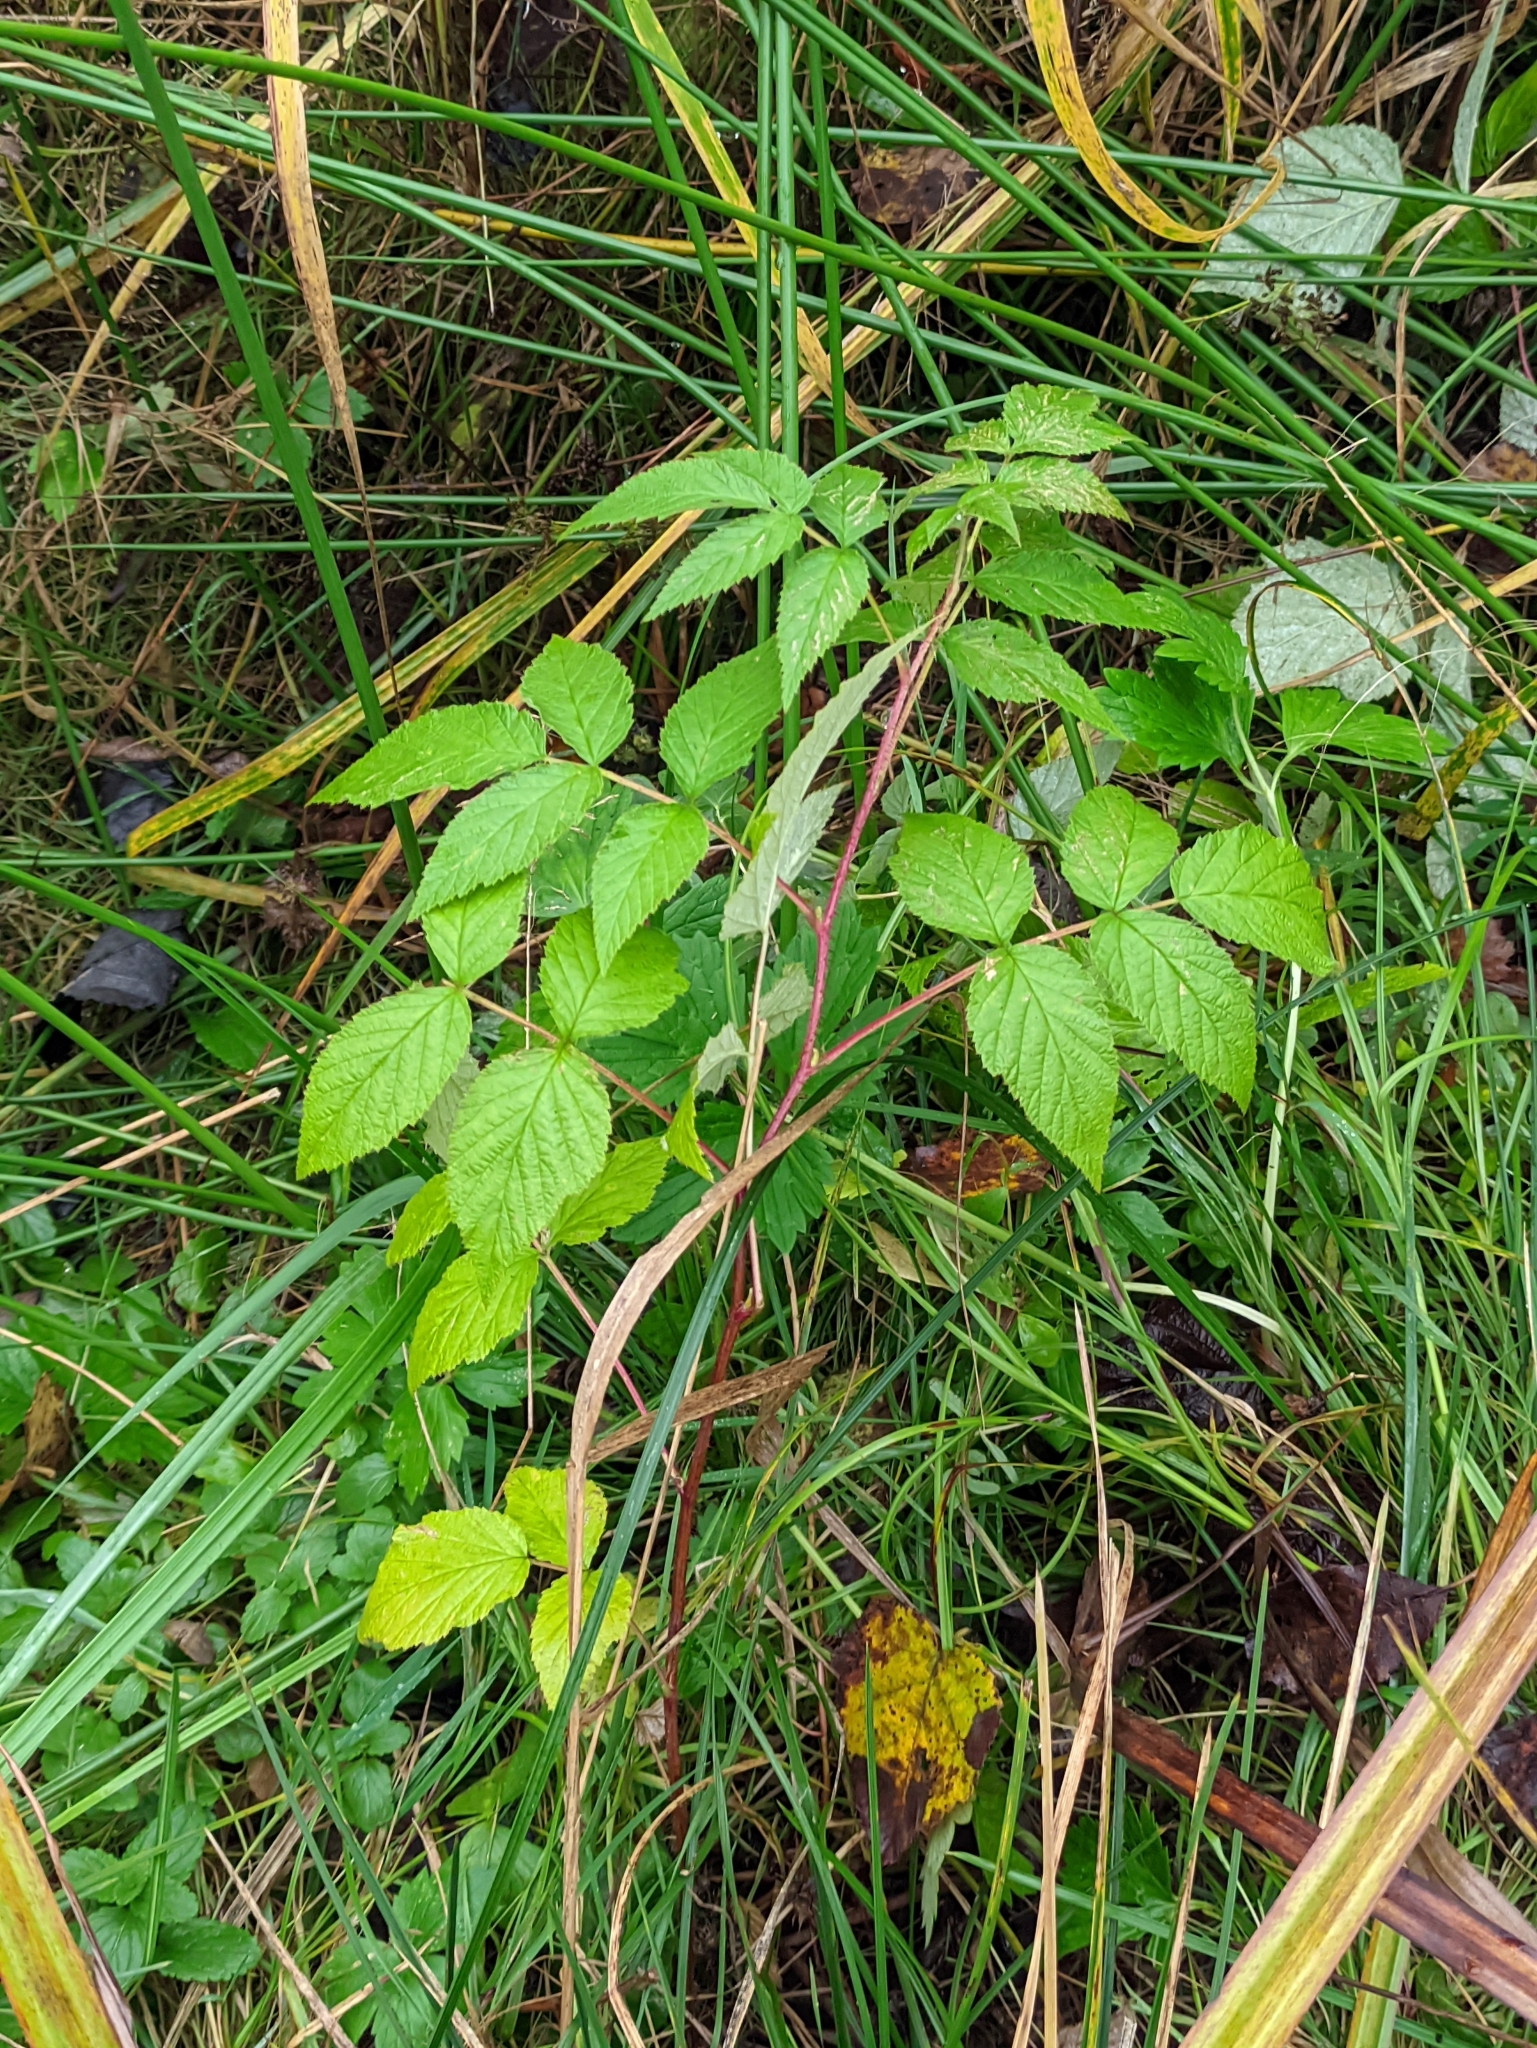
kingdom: Plantae
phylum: Tracheophyta
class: Magnoliopsida
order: Rosales
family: Rosaceae
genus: Rubus
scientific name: Rubus idaeus
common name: Raspberry
